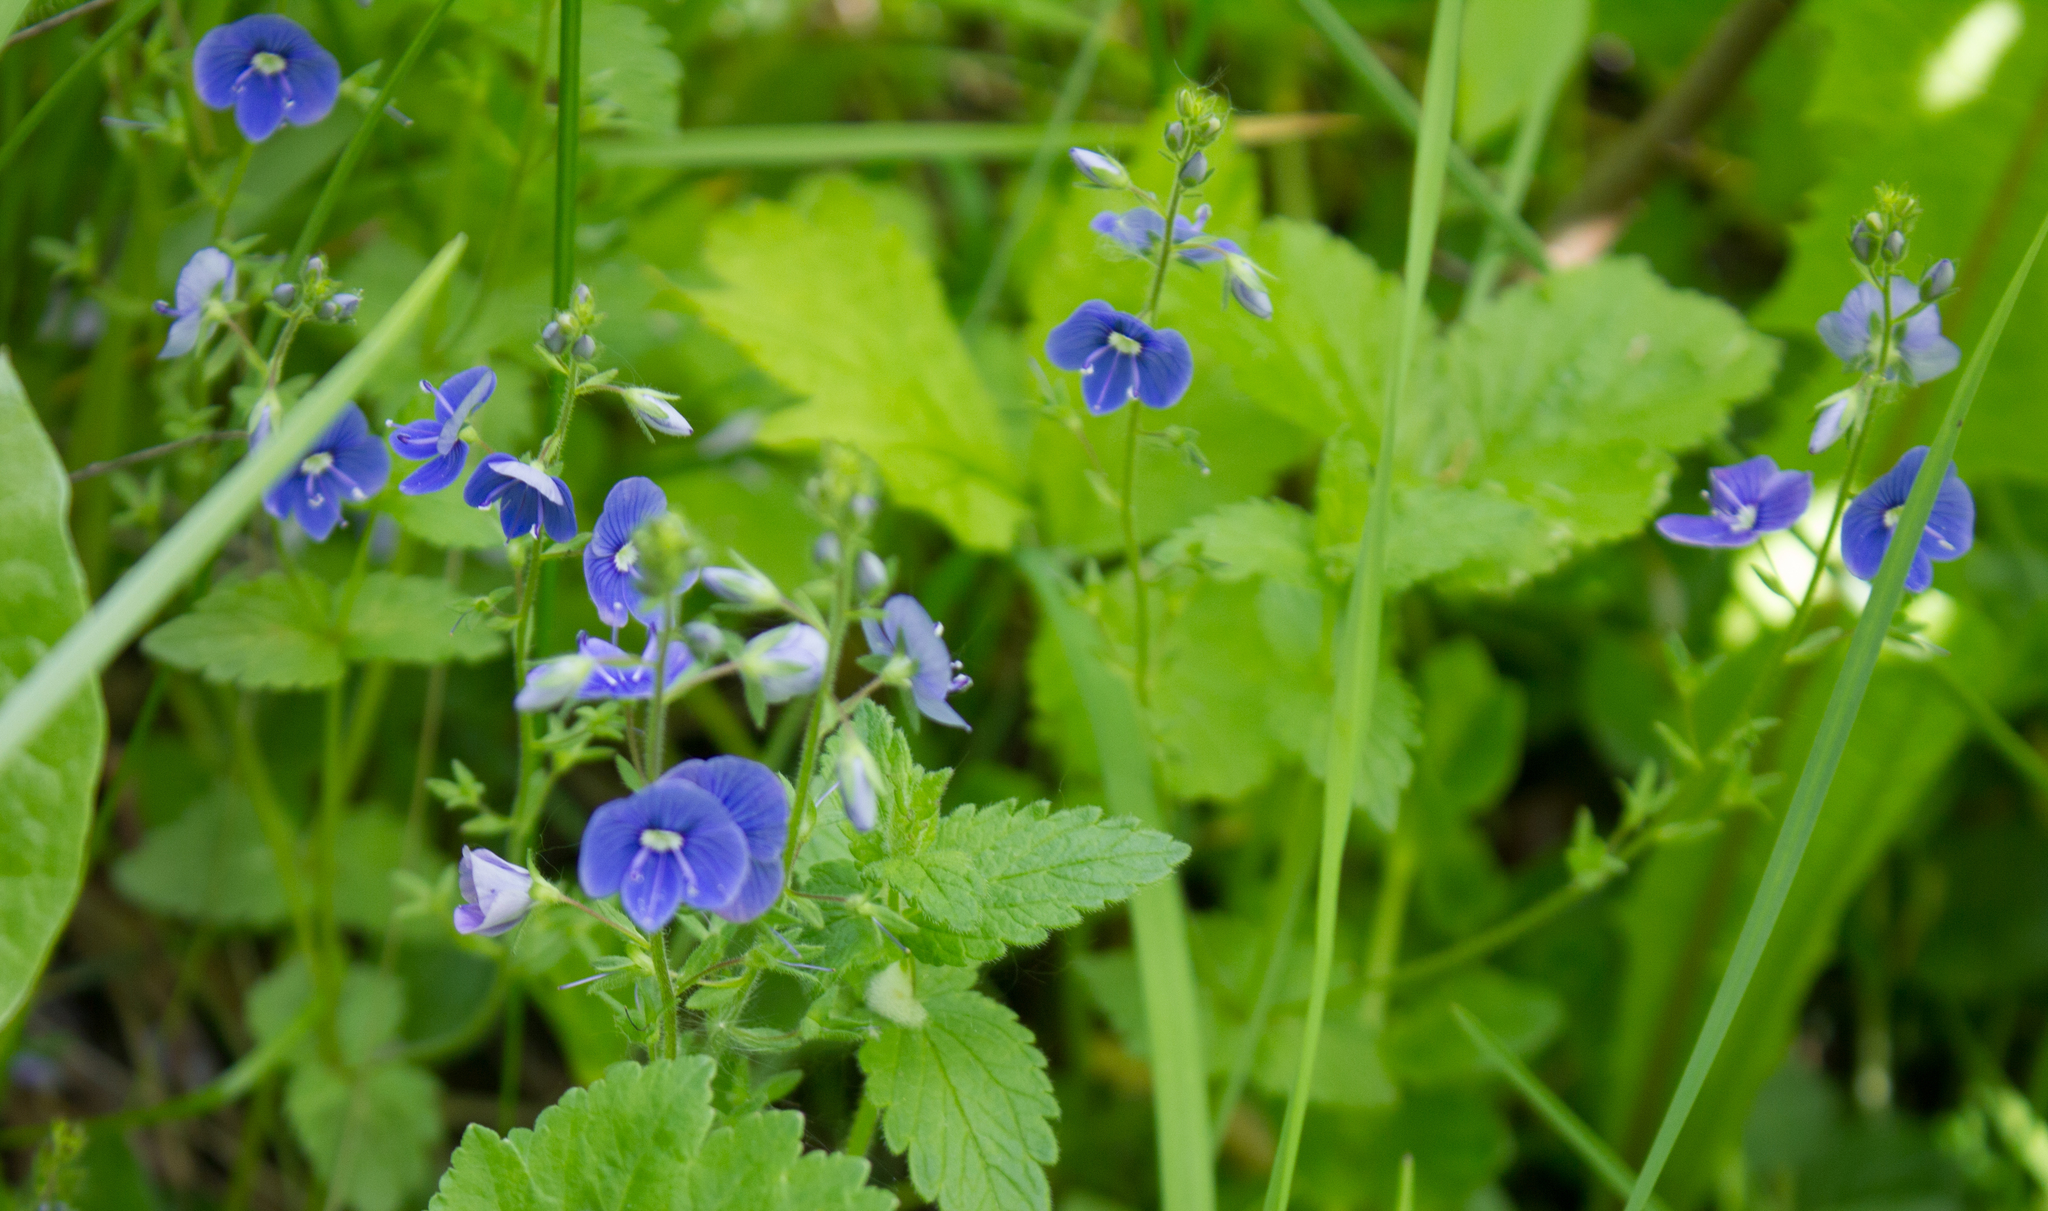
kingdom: Plantae
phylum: Tracheophyta
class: Magnoliopsida
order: Lamiales
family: Plantaginaceae
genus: Veronica
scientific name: Veronica chamaedrys
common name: Germander speedwell
